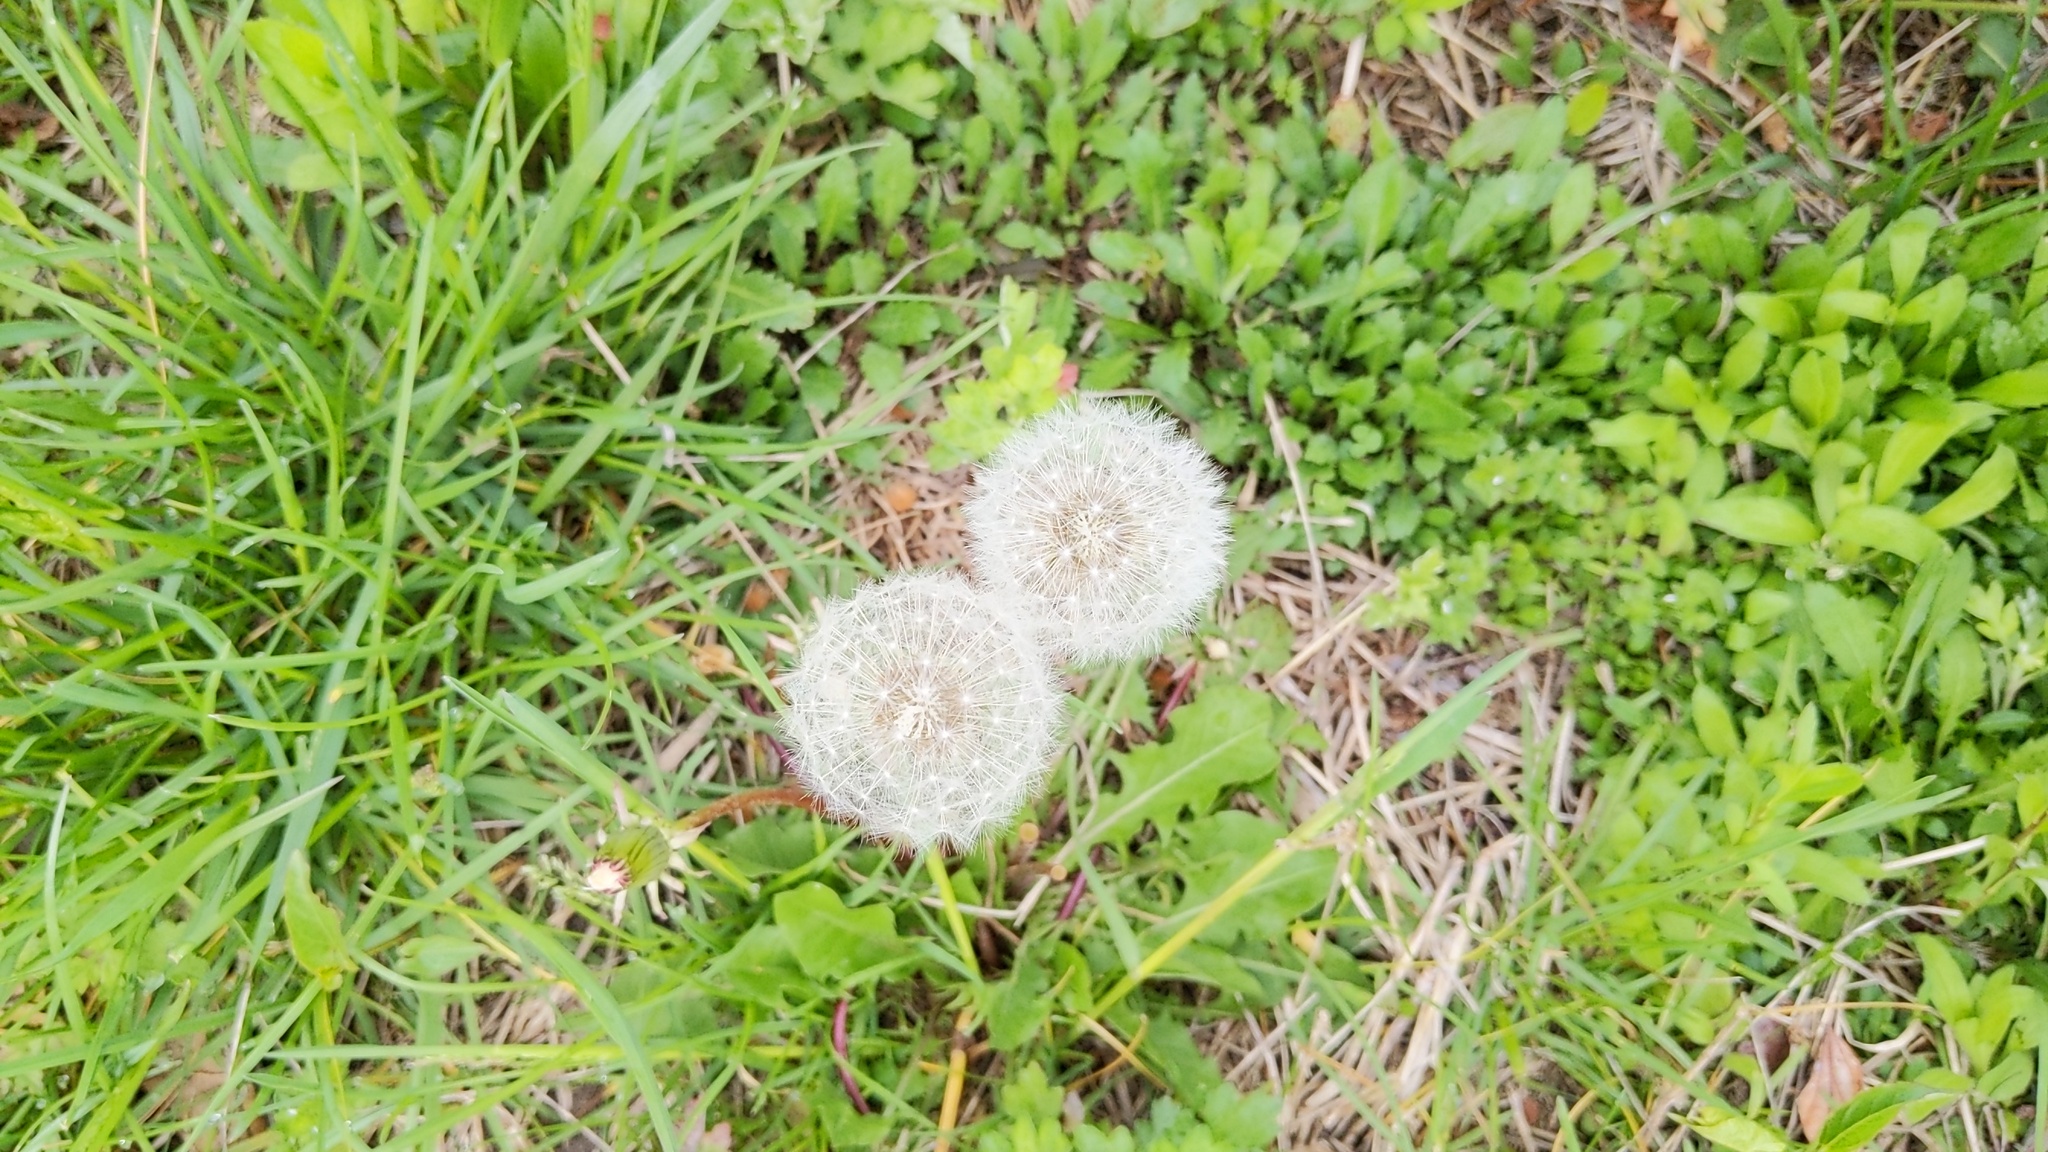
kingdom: Plantae
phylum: Tracheophyta
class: Magnoliopsida
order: Asterales
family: Asteraceae
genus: Taraxacum
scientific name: Taraxacum officinale
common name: Common dandelion
